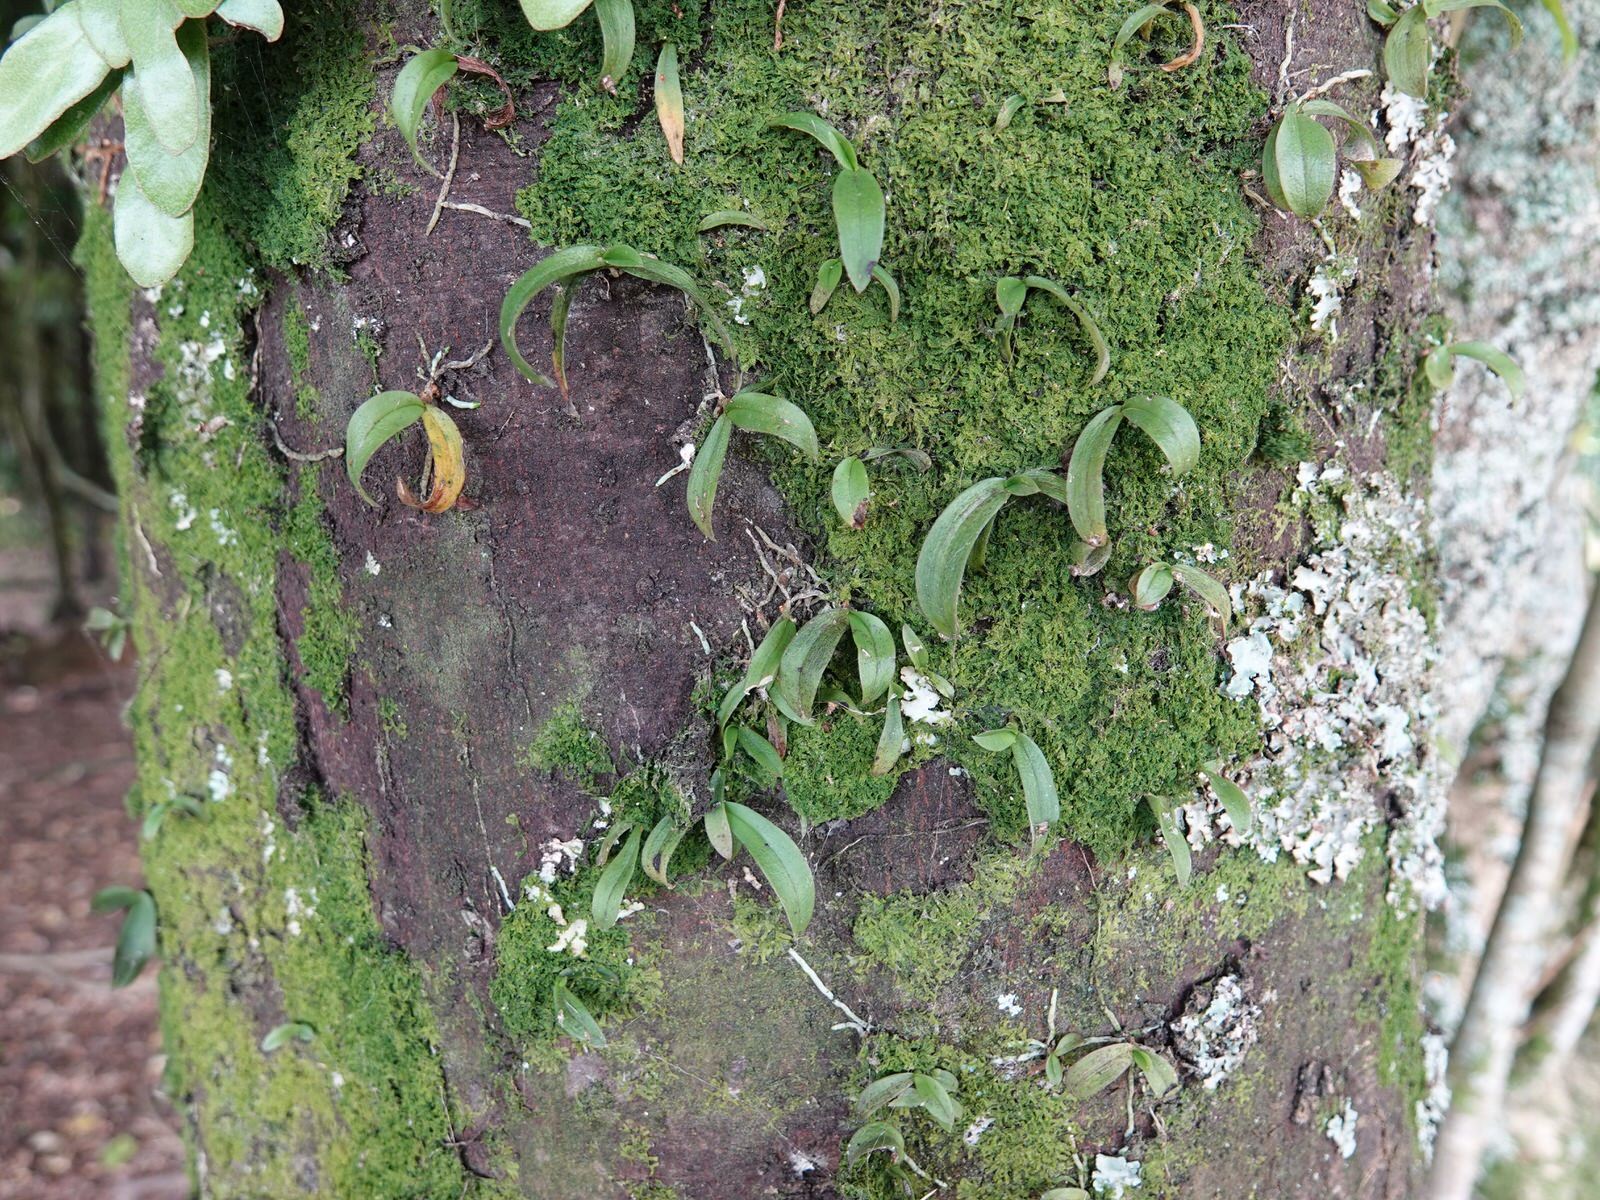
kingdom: Plantae
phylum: Tracheophyta
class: Liliopsida
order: Asparagales
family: Orchidaceae
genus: Drymoanthus
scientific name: Drymoanthus adversus
